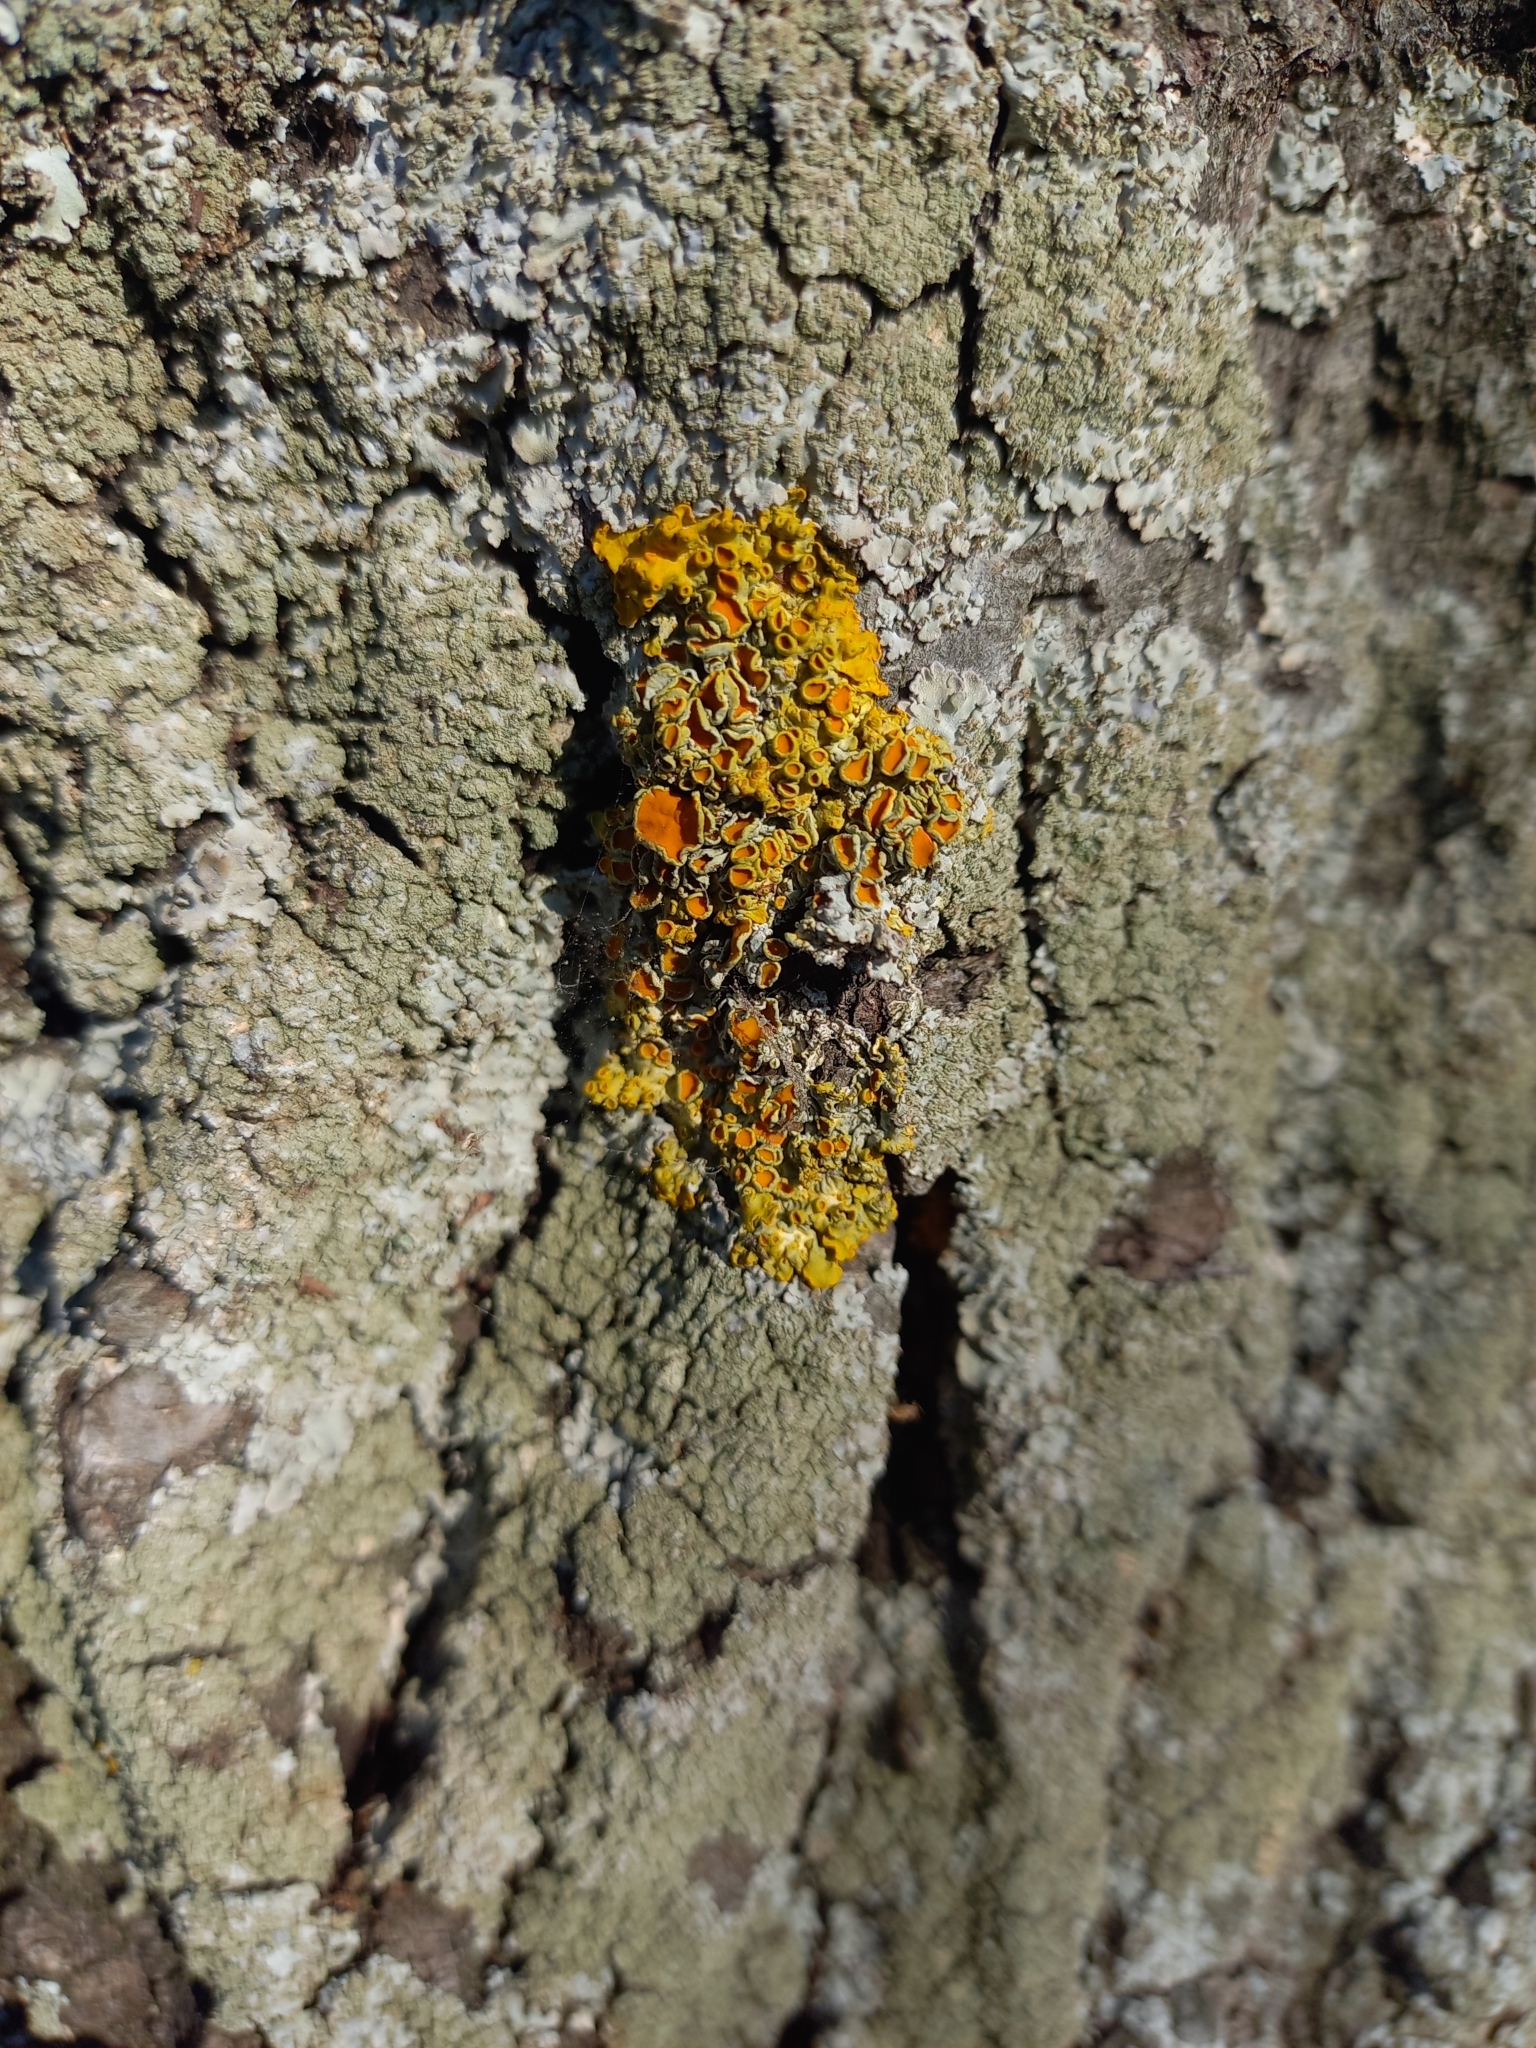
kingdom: Fungi
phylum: Ascomycota
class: Lecanoromycetes
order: Teloschistales
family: Teloschistaceae
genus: Xanthoria
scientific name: Xanthoria parietina
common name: Common orange lichen
